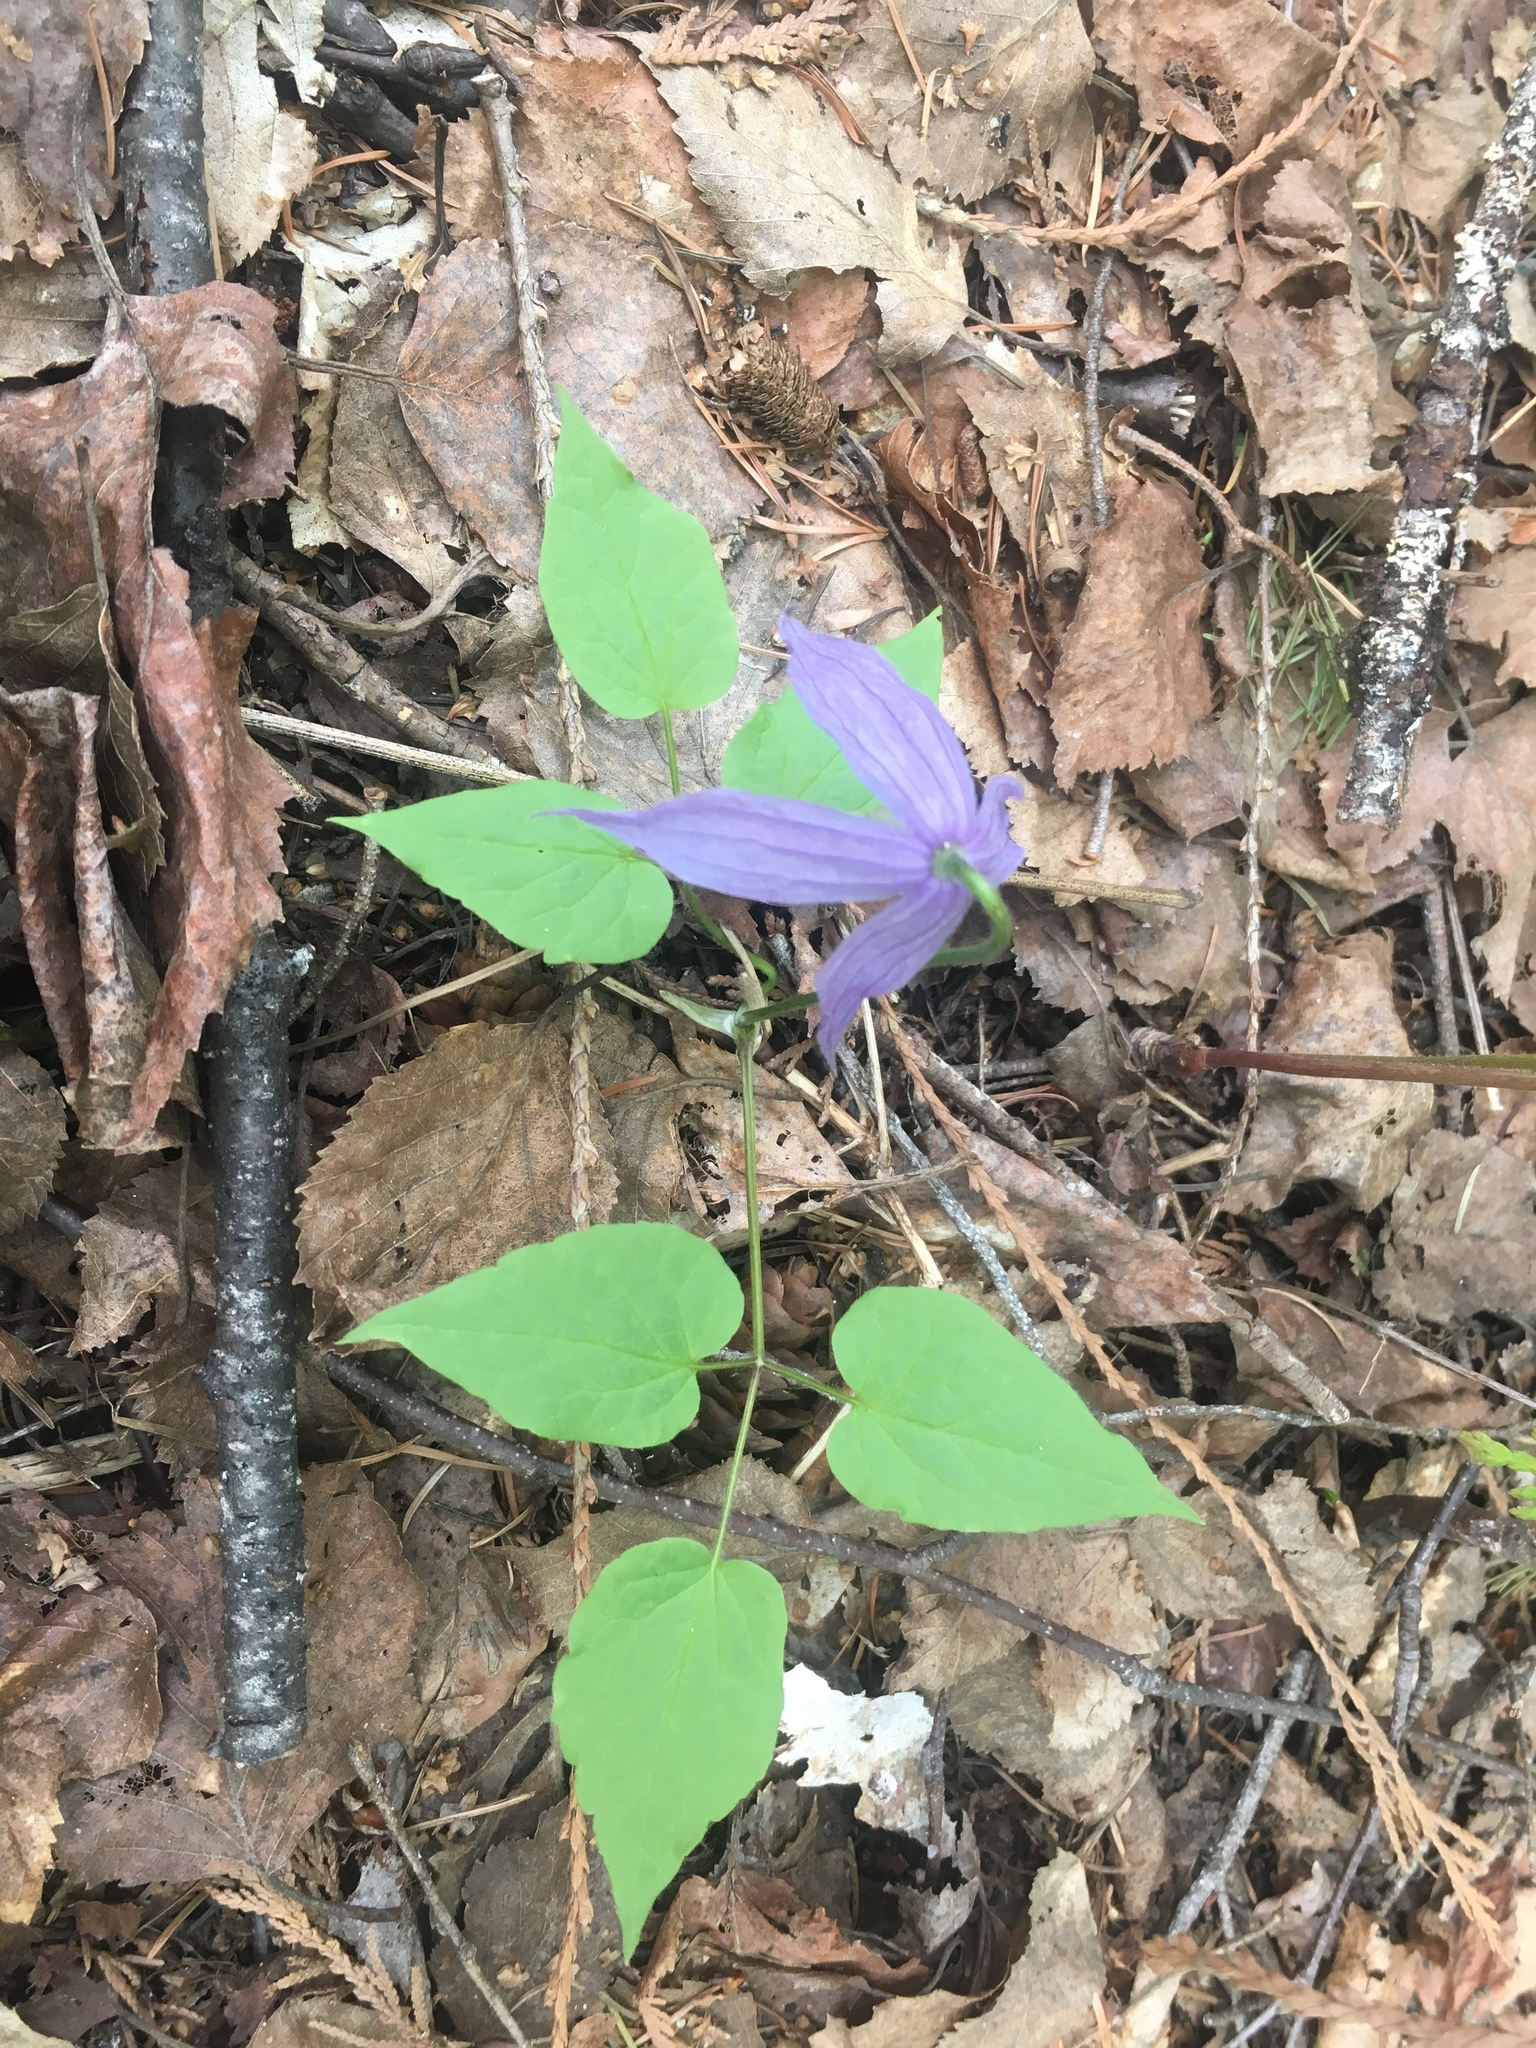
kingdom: Plantae
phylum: Tracheophyta
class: Magnoliopsida
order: Ranunculales
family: Ranunculaceae
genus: Clematis
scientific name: Clematis occidentalis
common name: Purple clematis
